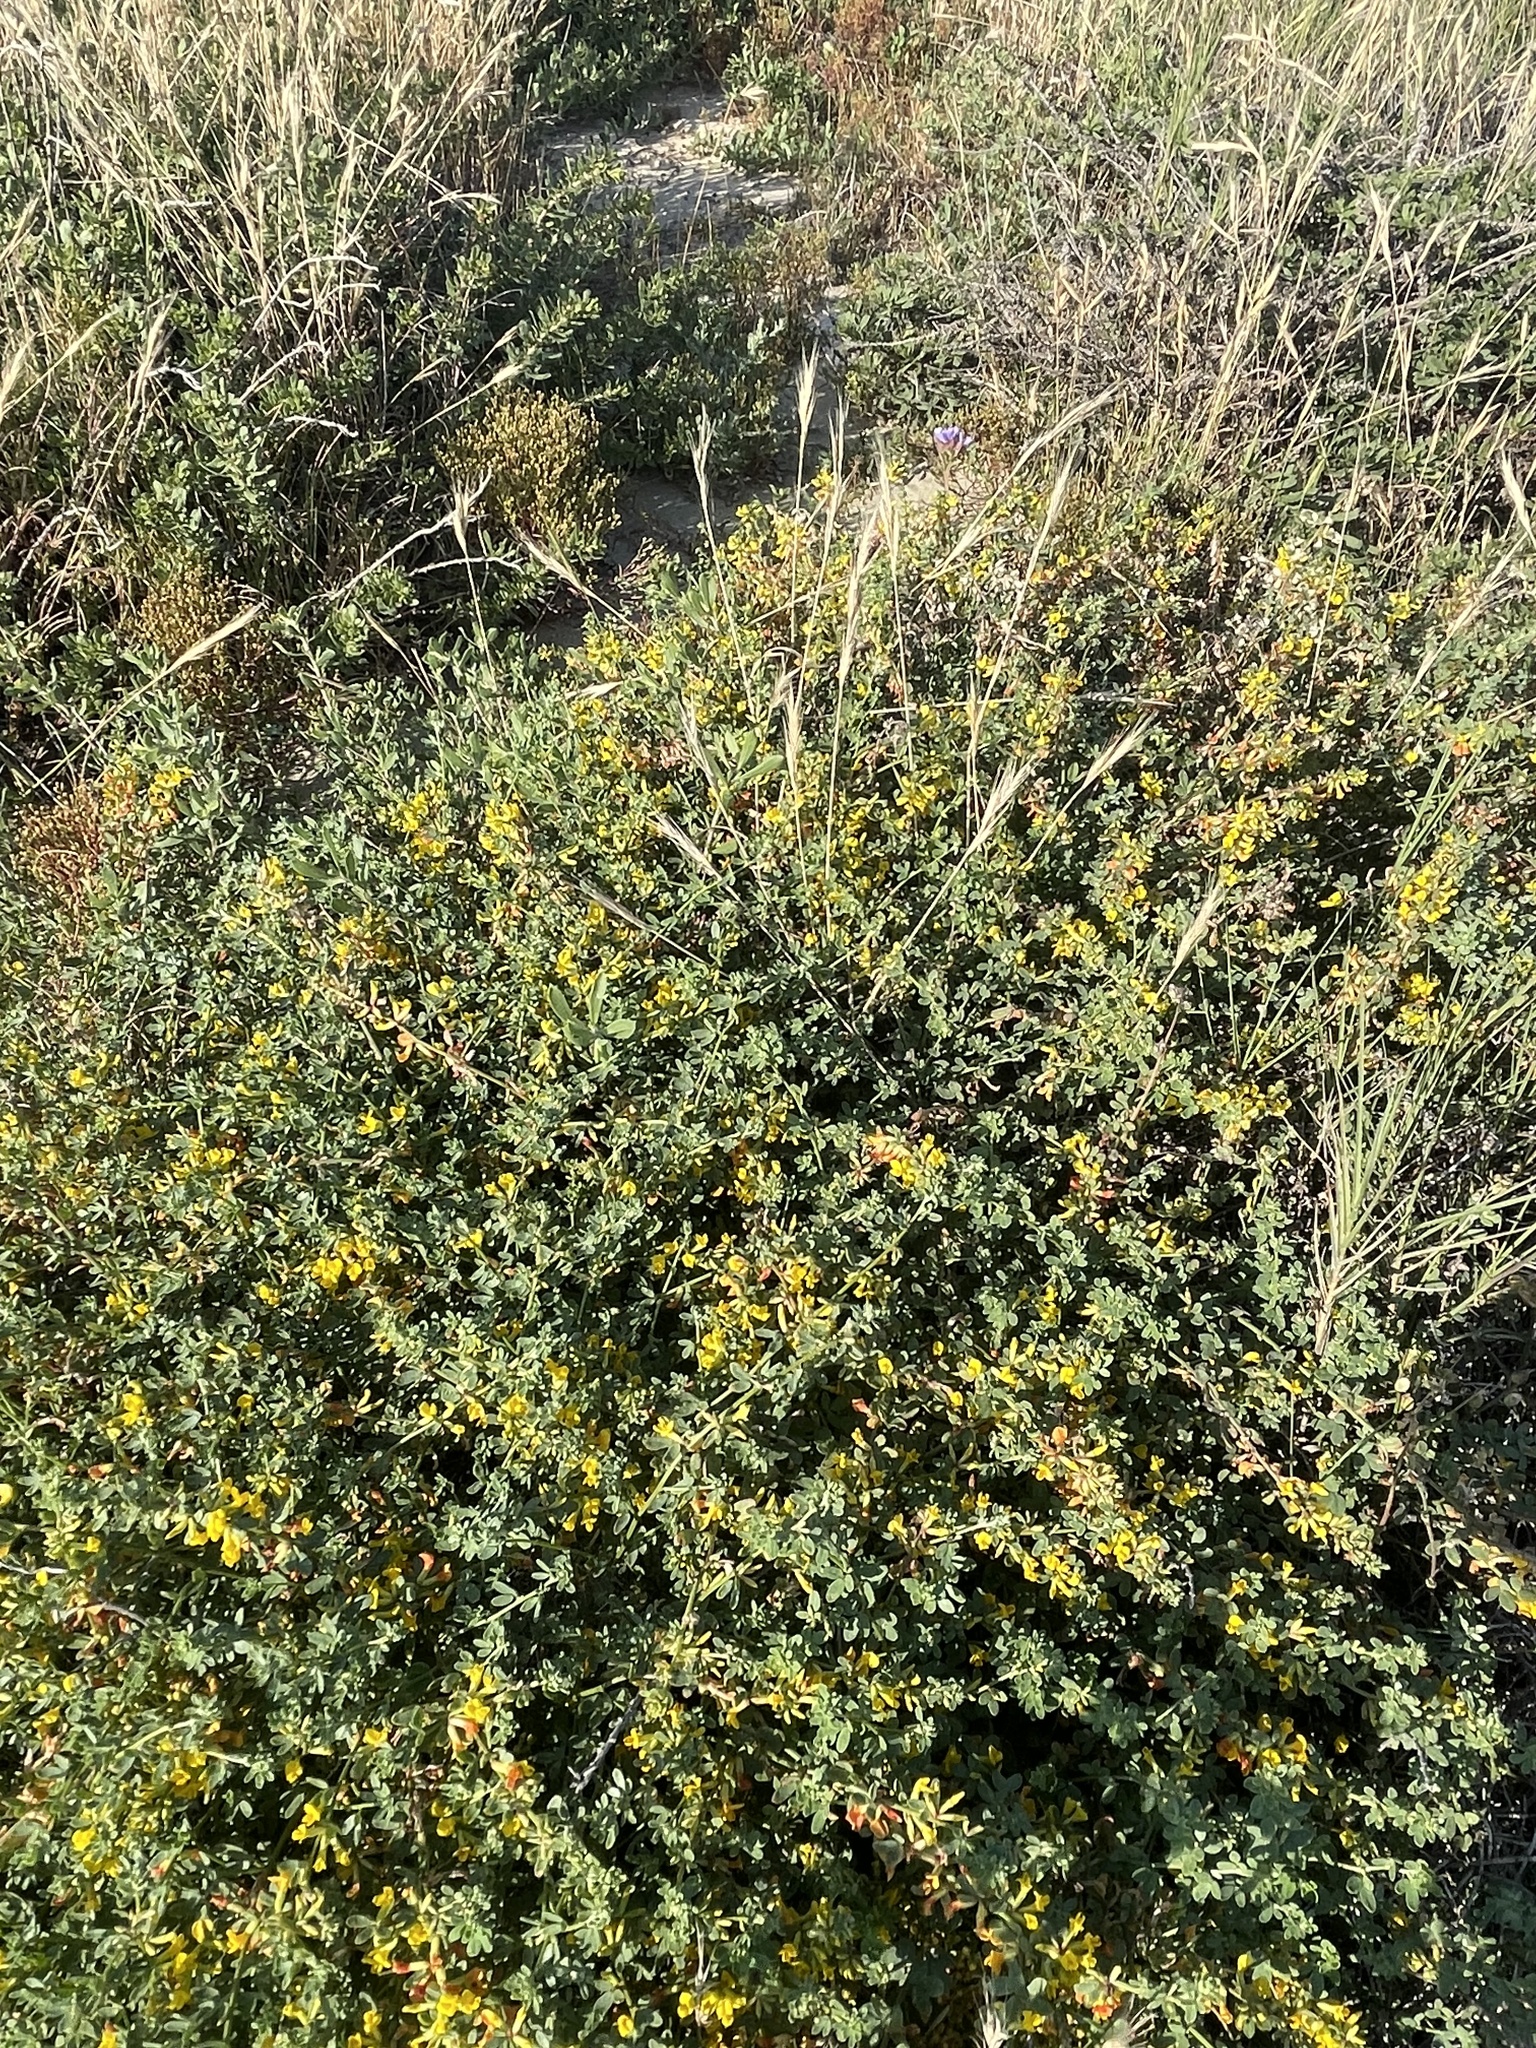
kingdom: Plantae
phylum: Tracheophyta
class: Magnoliopsida
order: Fabales
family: Fabaceae
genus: Acmispon
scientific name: Acmispon glaber
